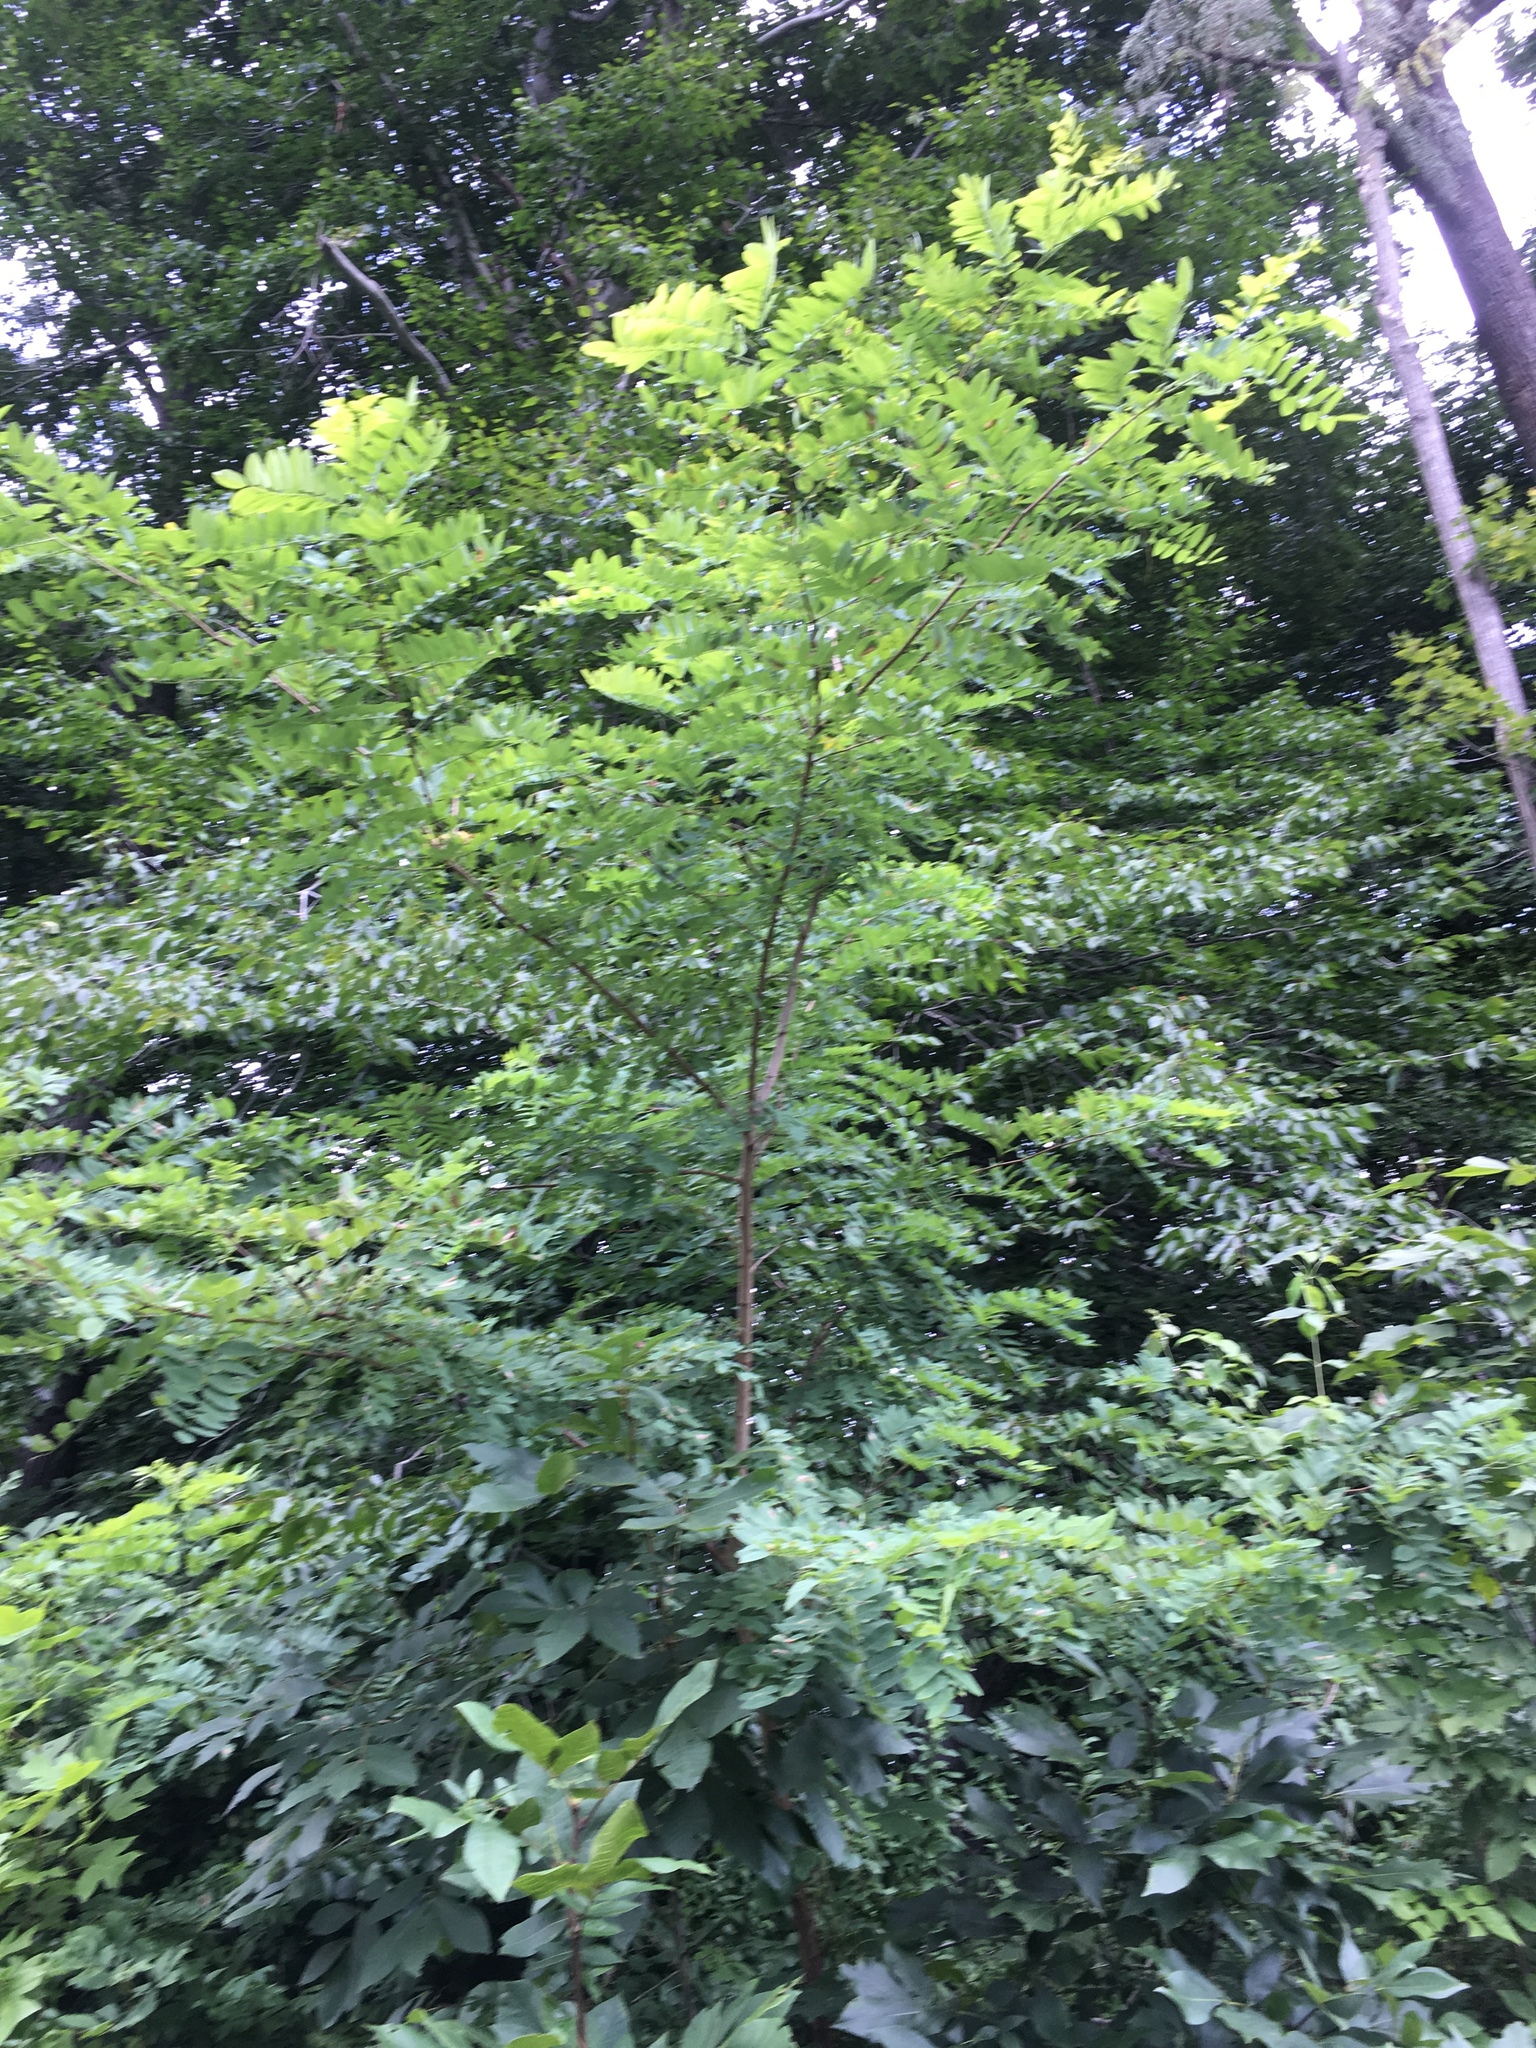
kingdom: Plantae
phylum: Tracheophyta
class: Magnoliopsida
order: Fabales
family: Fabaceae
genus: Robinia
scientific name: Robinia pseudoacacia
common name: Black locust
